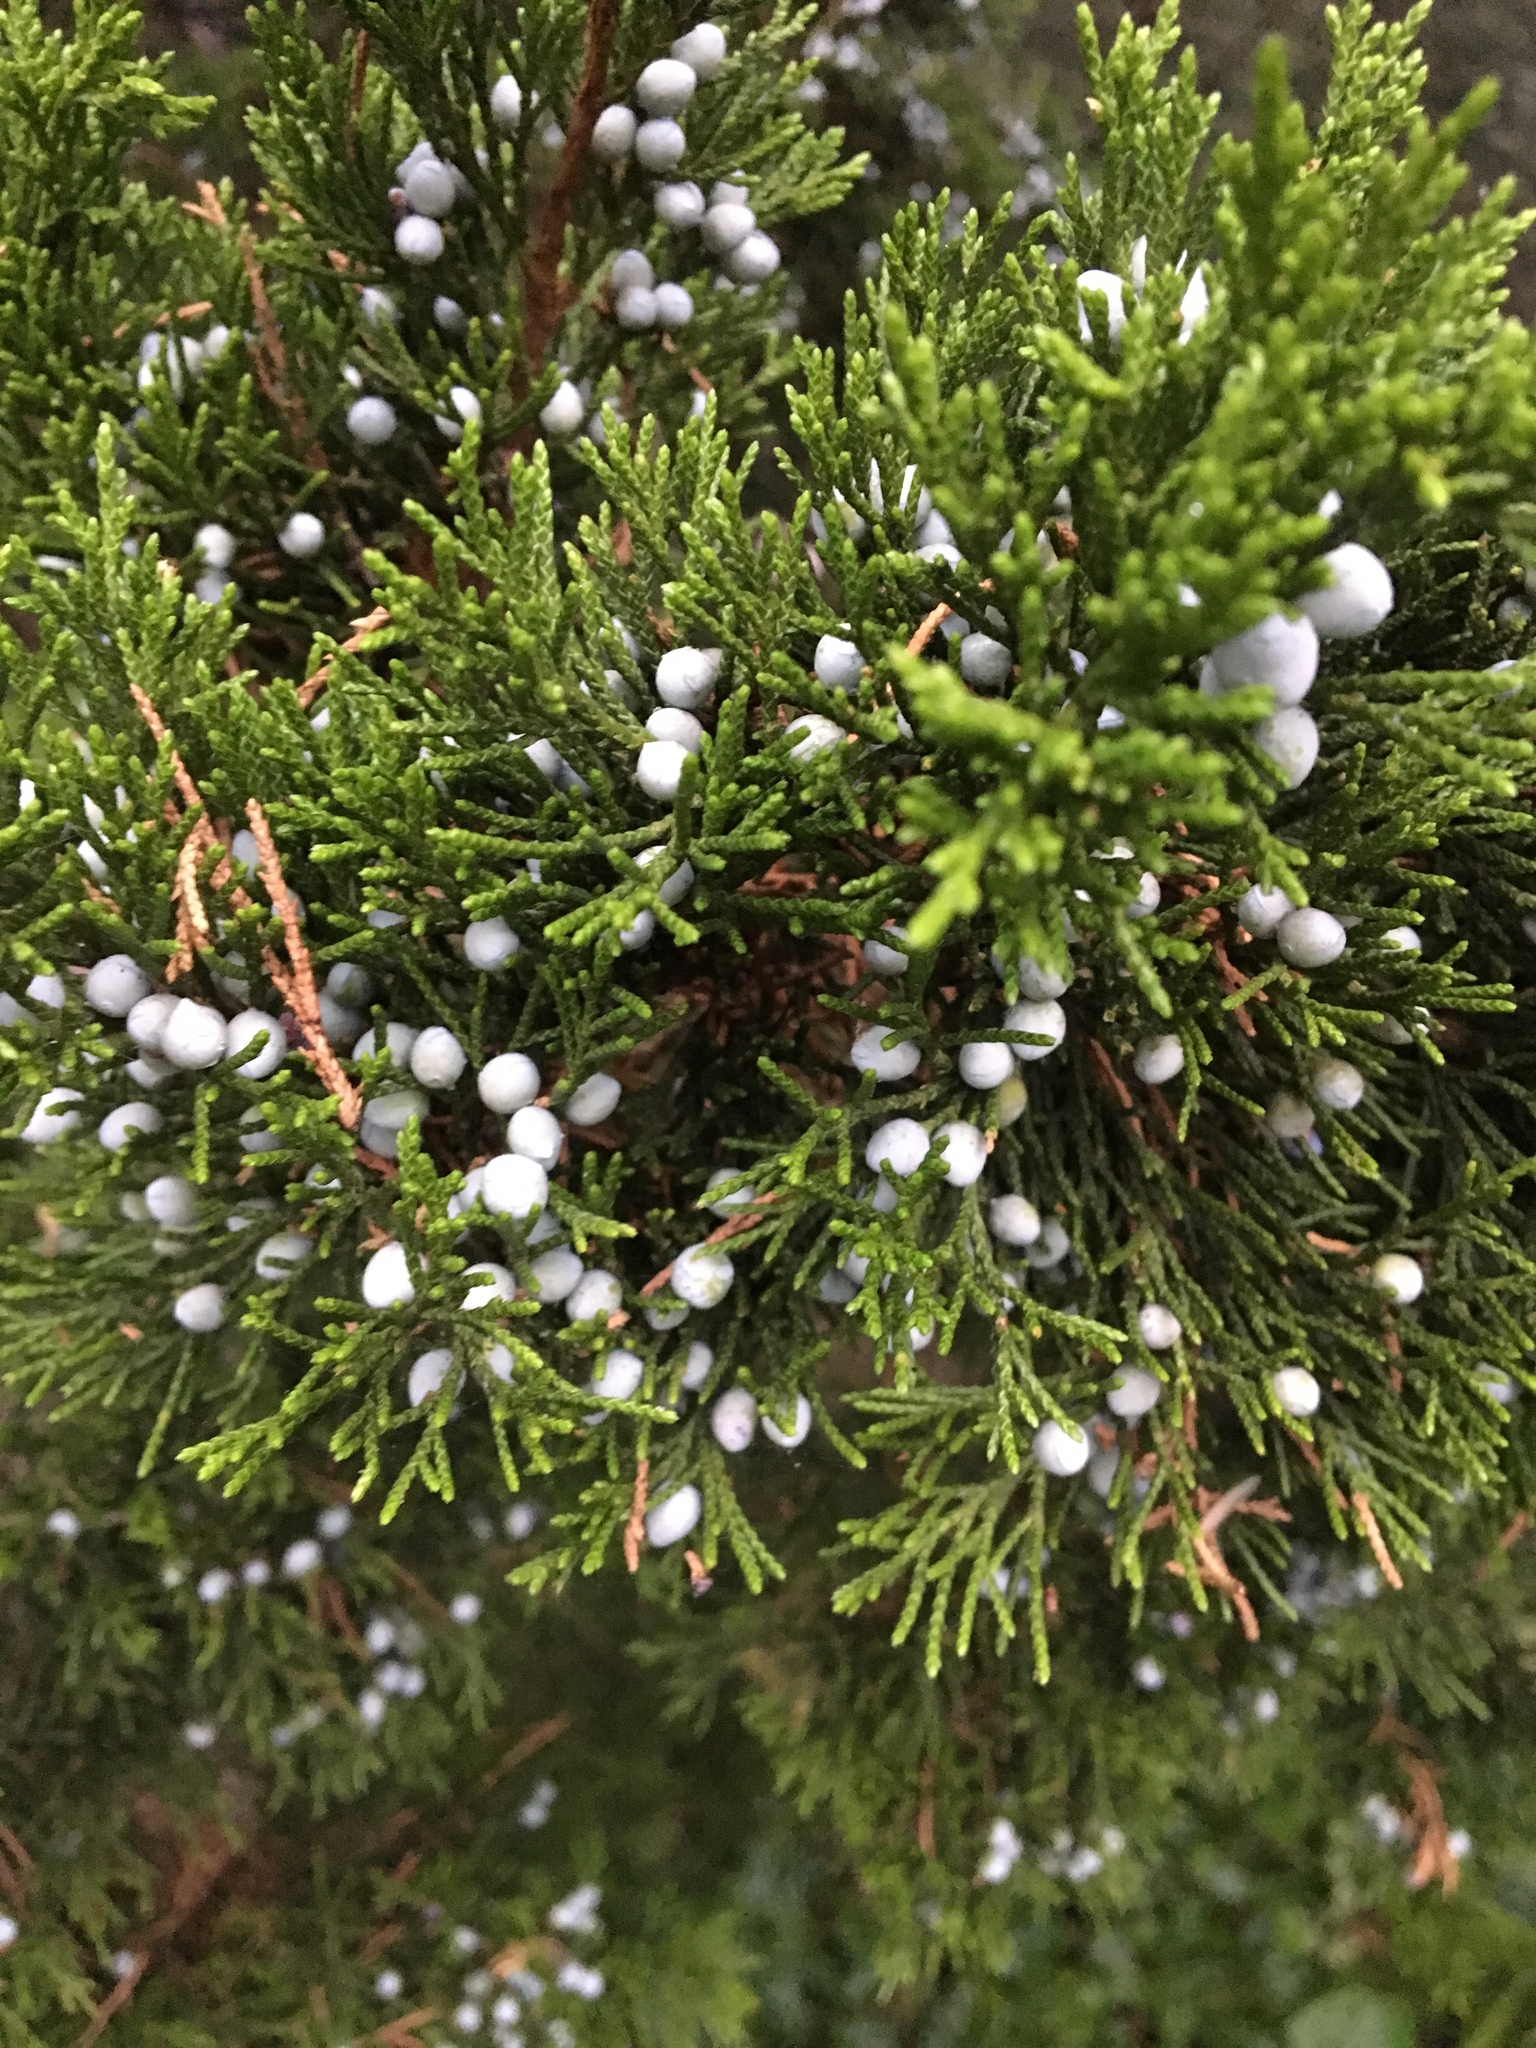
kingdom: Plantae
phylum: Tracheophyta
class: Pinopsida
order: Pinales
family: Cupressaceae
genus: Juniperus
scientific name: Juniperus virginiana
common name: Red juniper
